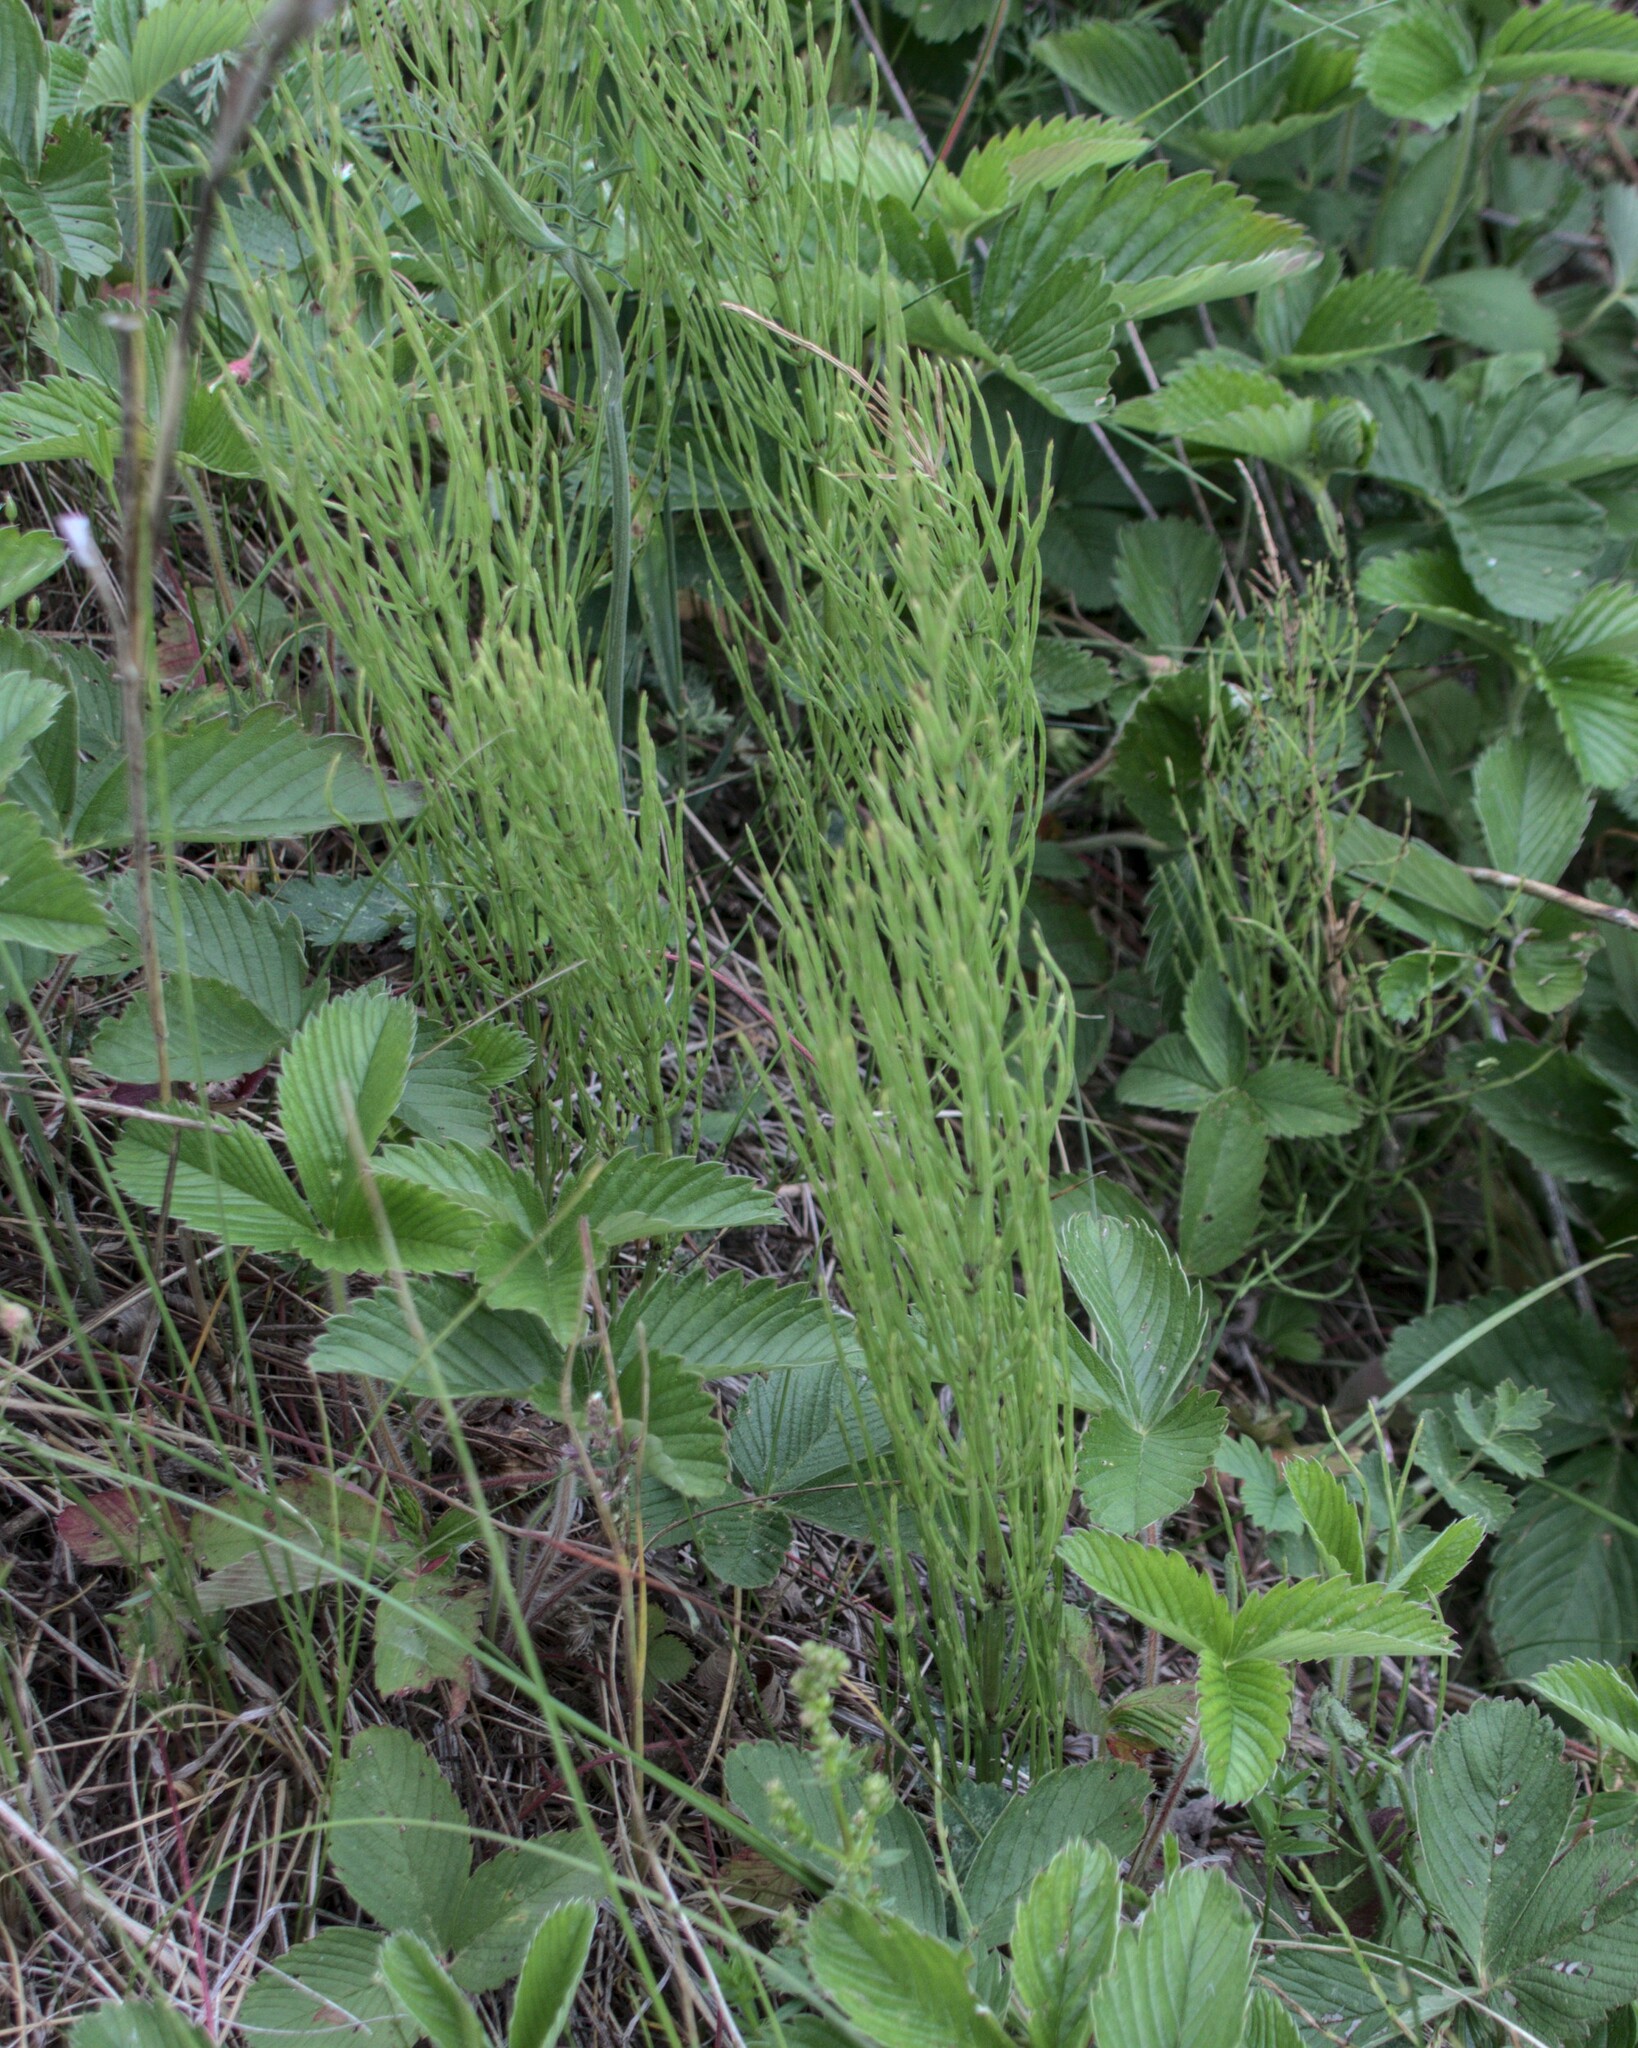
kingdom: Plantae
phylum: Tracheophyta
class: Polypodiopsida
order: Equisetales
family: Equisetaceae
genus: Equisetum
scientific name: Equisetum arvense
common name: Field horsetail
